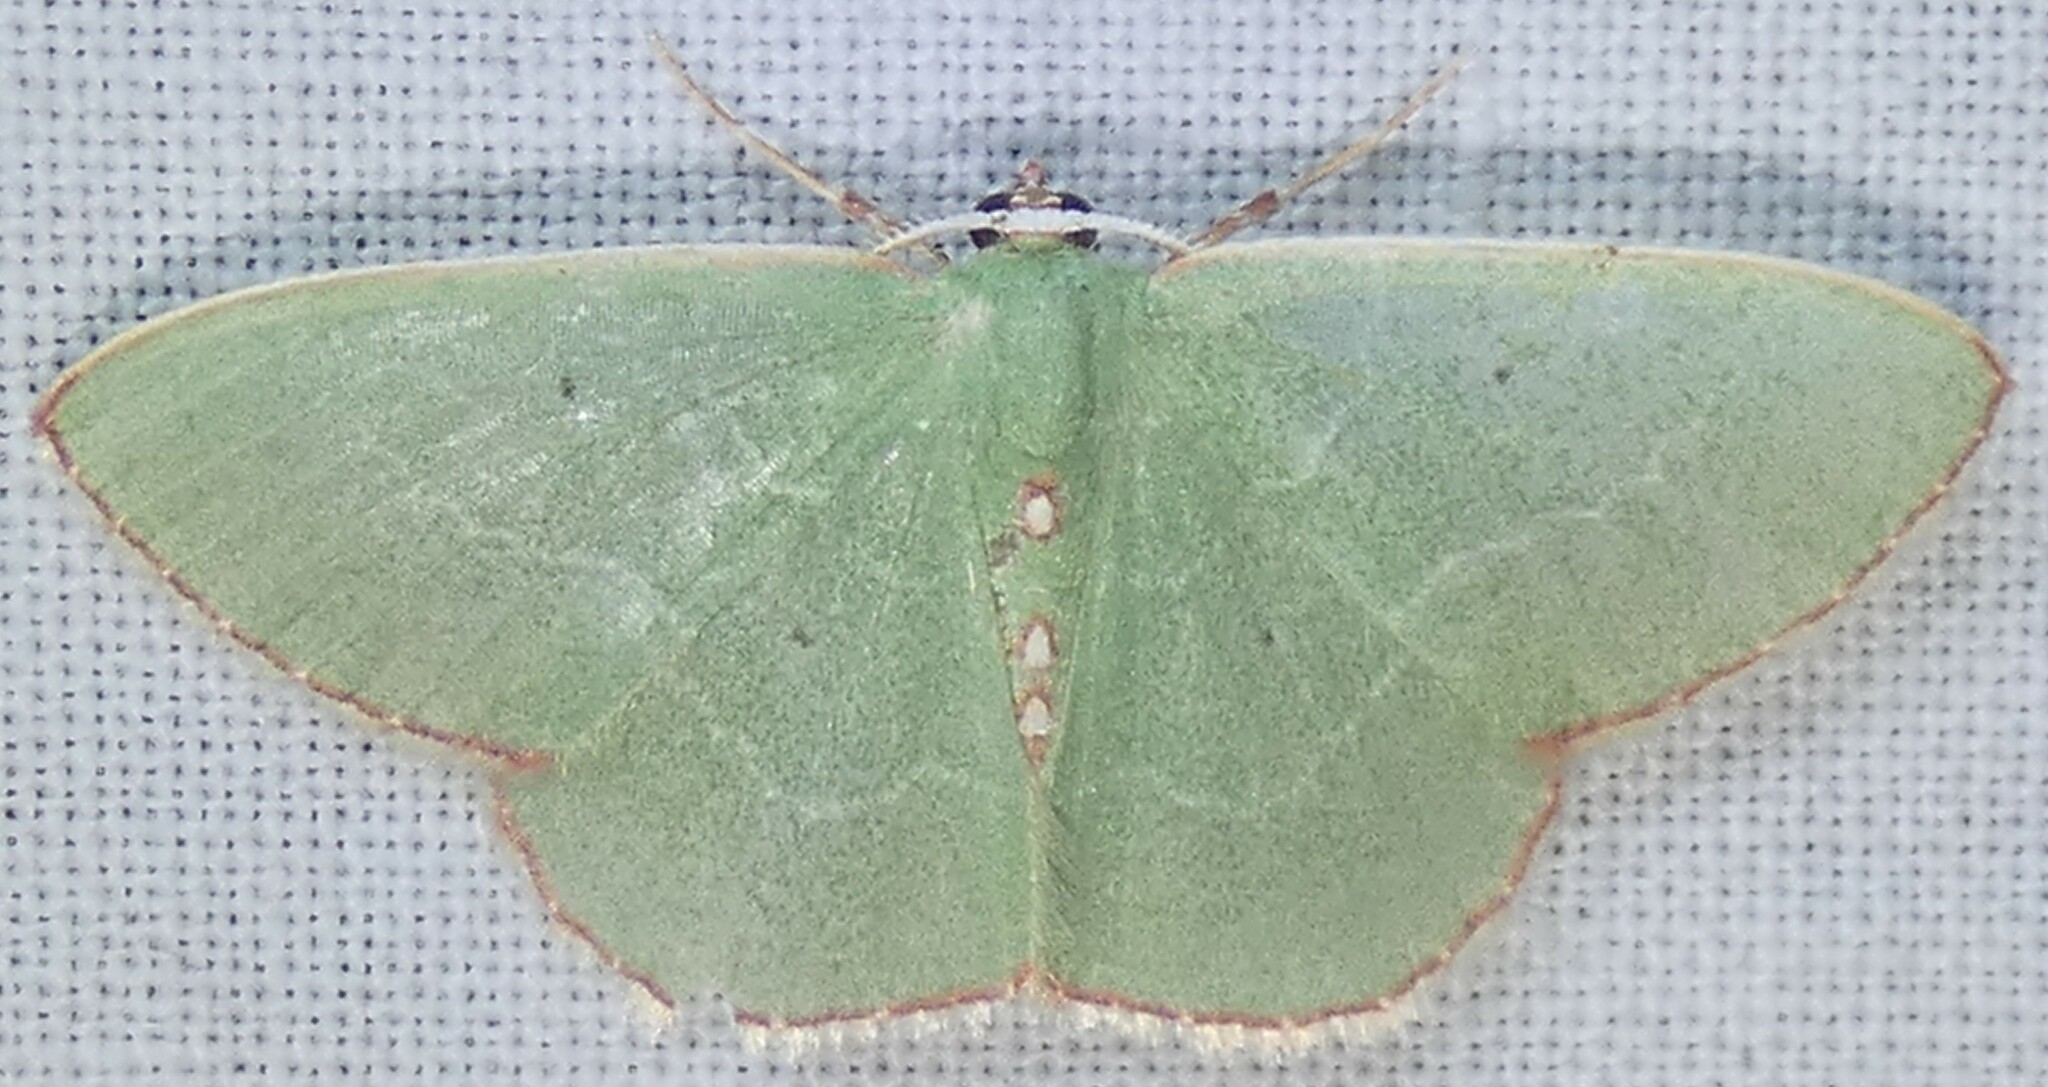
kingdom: Animalia
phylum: Arthropoda
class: Insecta
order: Lepidoptera
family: Geometridae
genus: Nemoria
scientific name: Nemoria lixaria
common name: Red-bordered emerald
